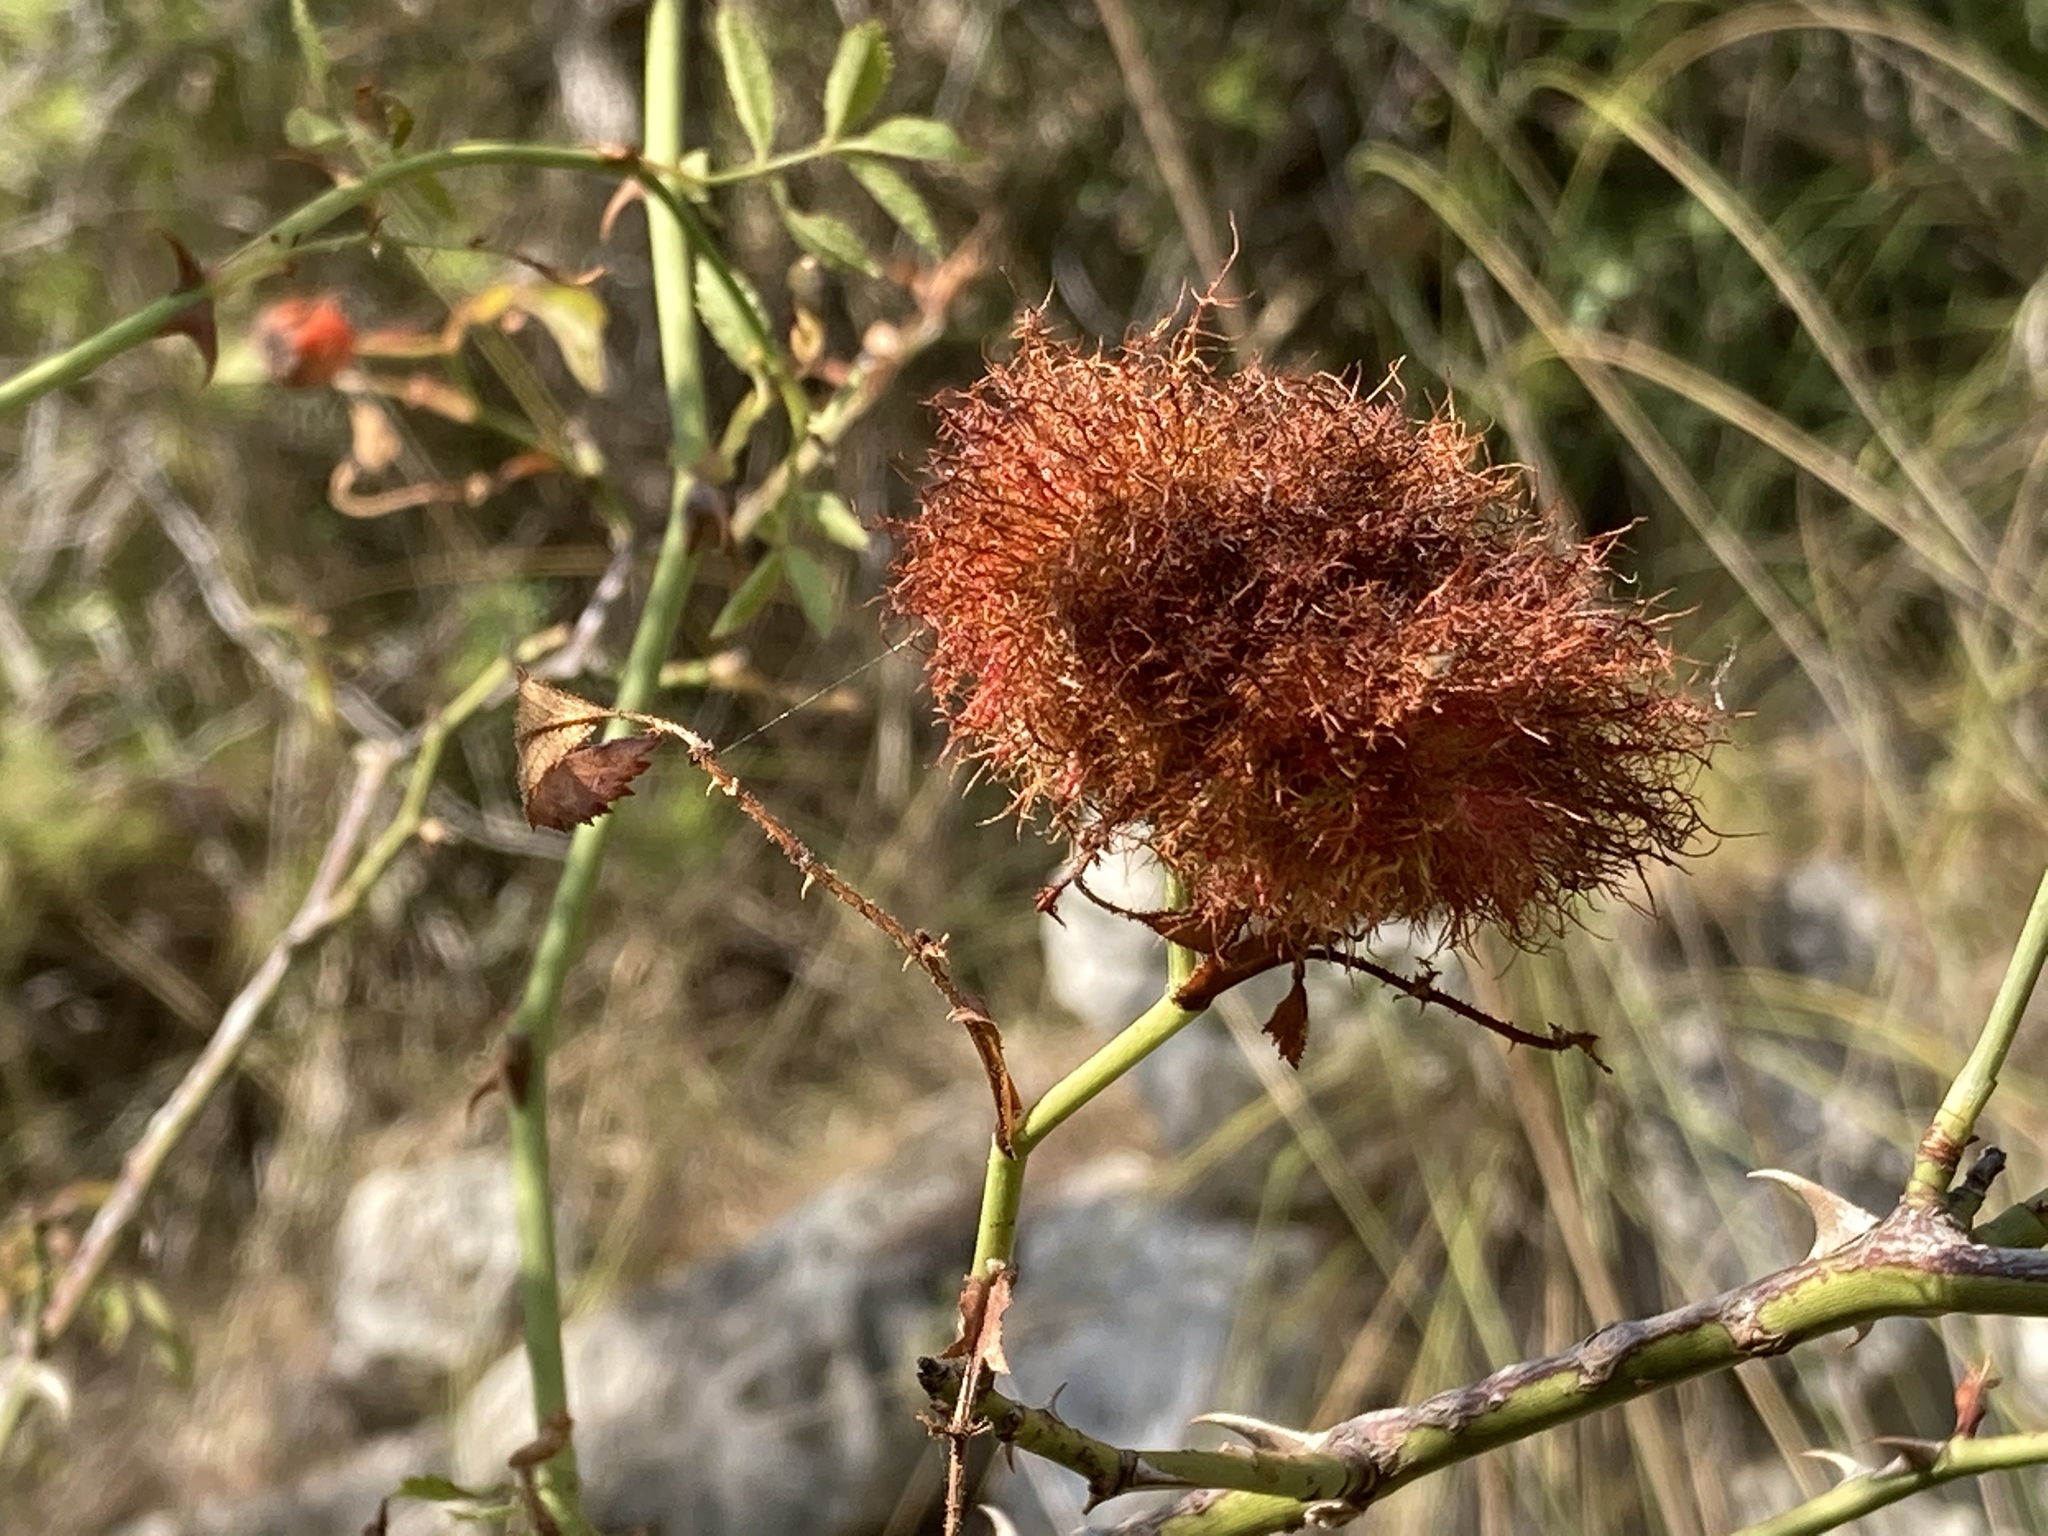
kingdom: Animalia
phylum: Arthropoda
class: Insecta
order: Hymenoptera
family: Cynipidae
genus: Diplolepis
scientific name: Diplolepis rosae
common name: Bedeguar gall
